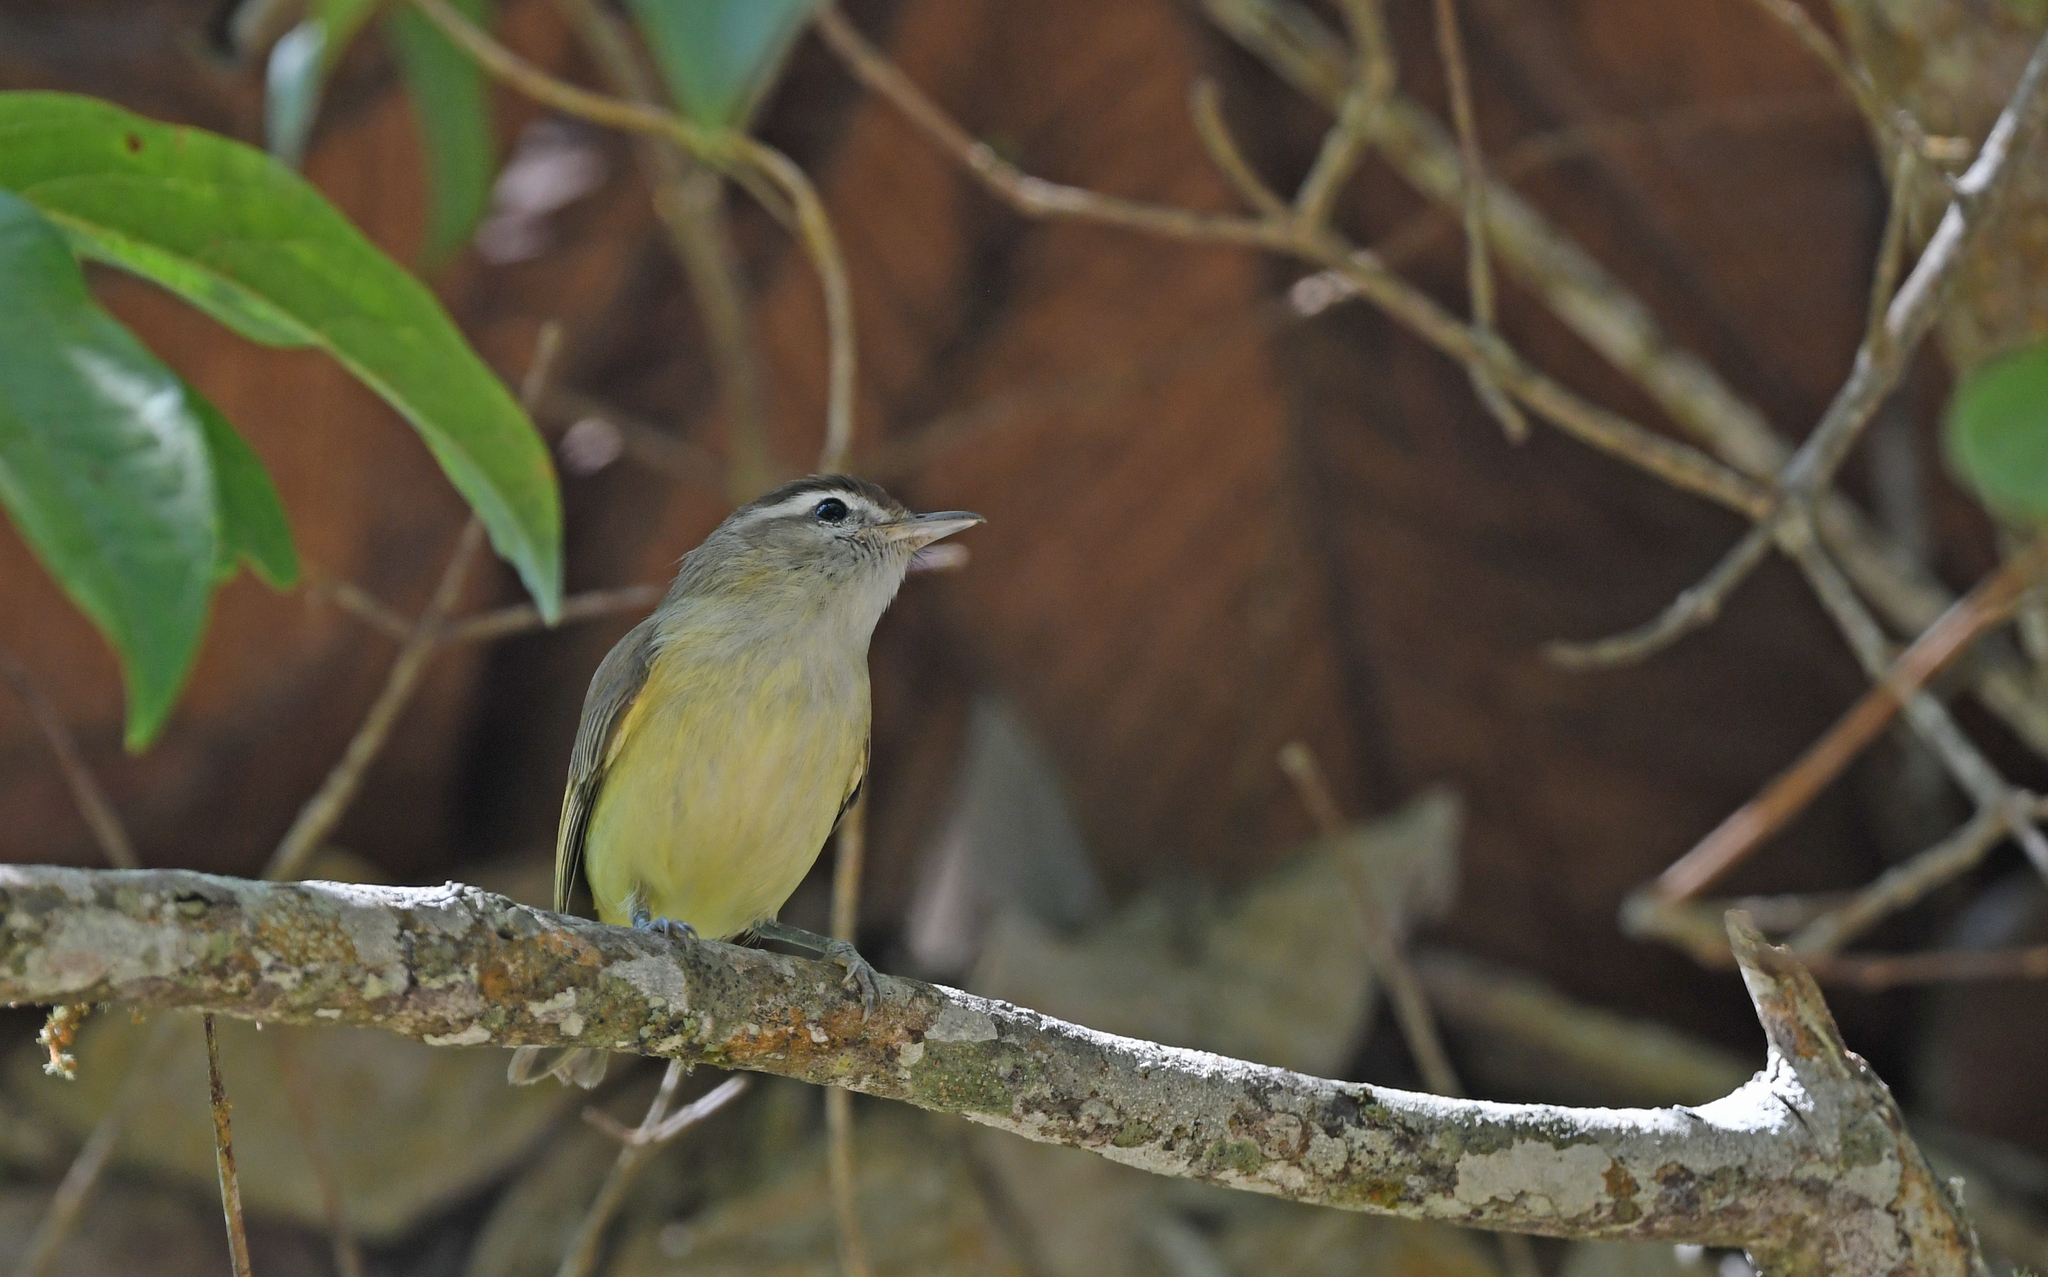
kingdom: Animalia
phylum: Chordata
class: Aves
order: Passeriformes
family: Vireonidae
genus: Vireo
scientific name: Vireo leucophrys
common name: Brown-capped vireo
